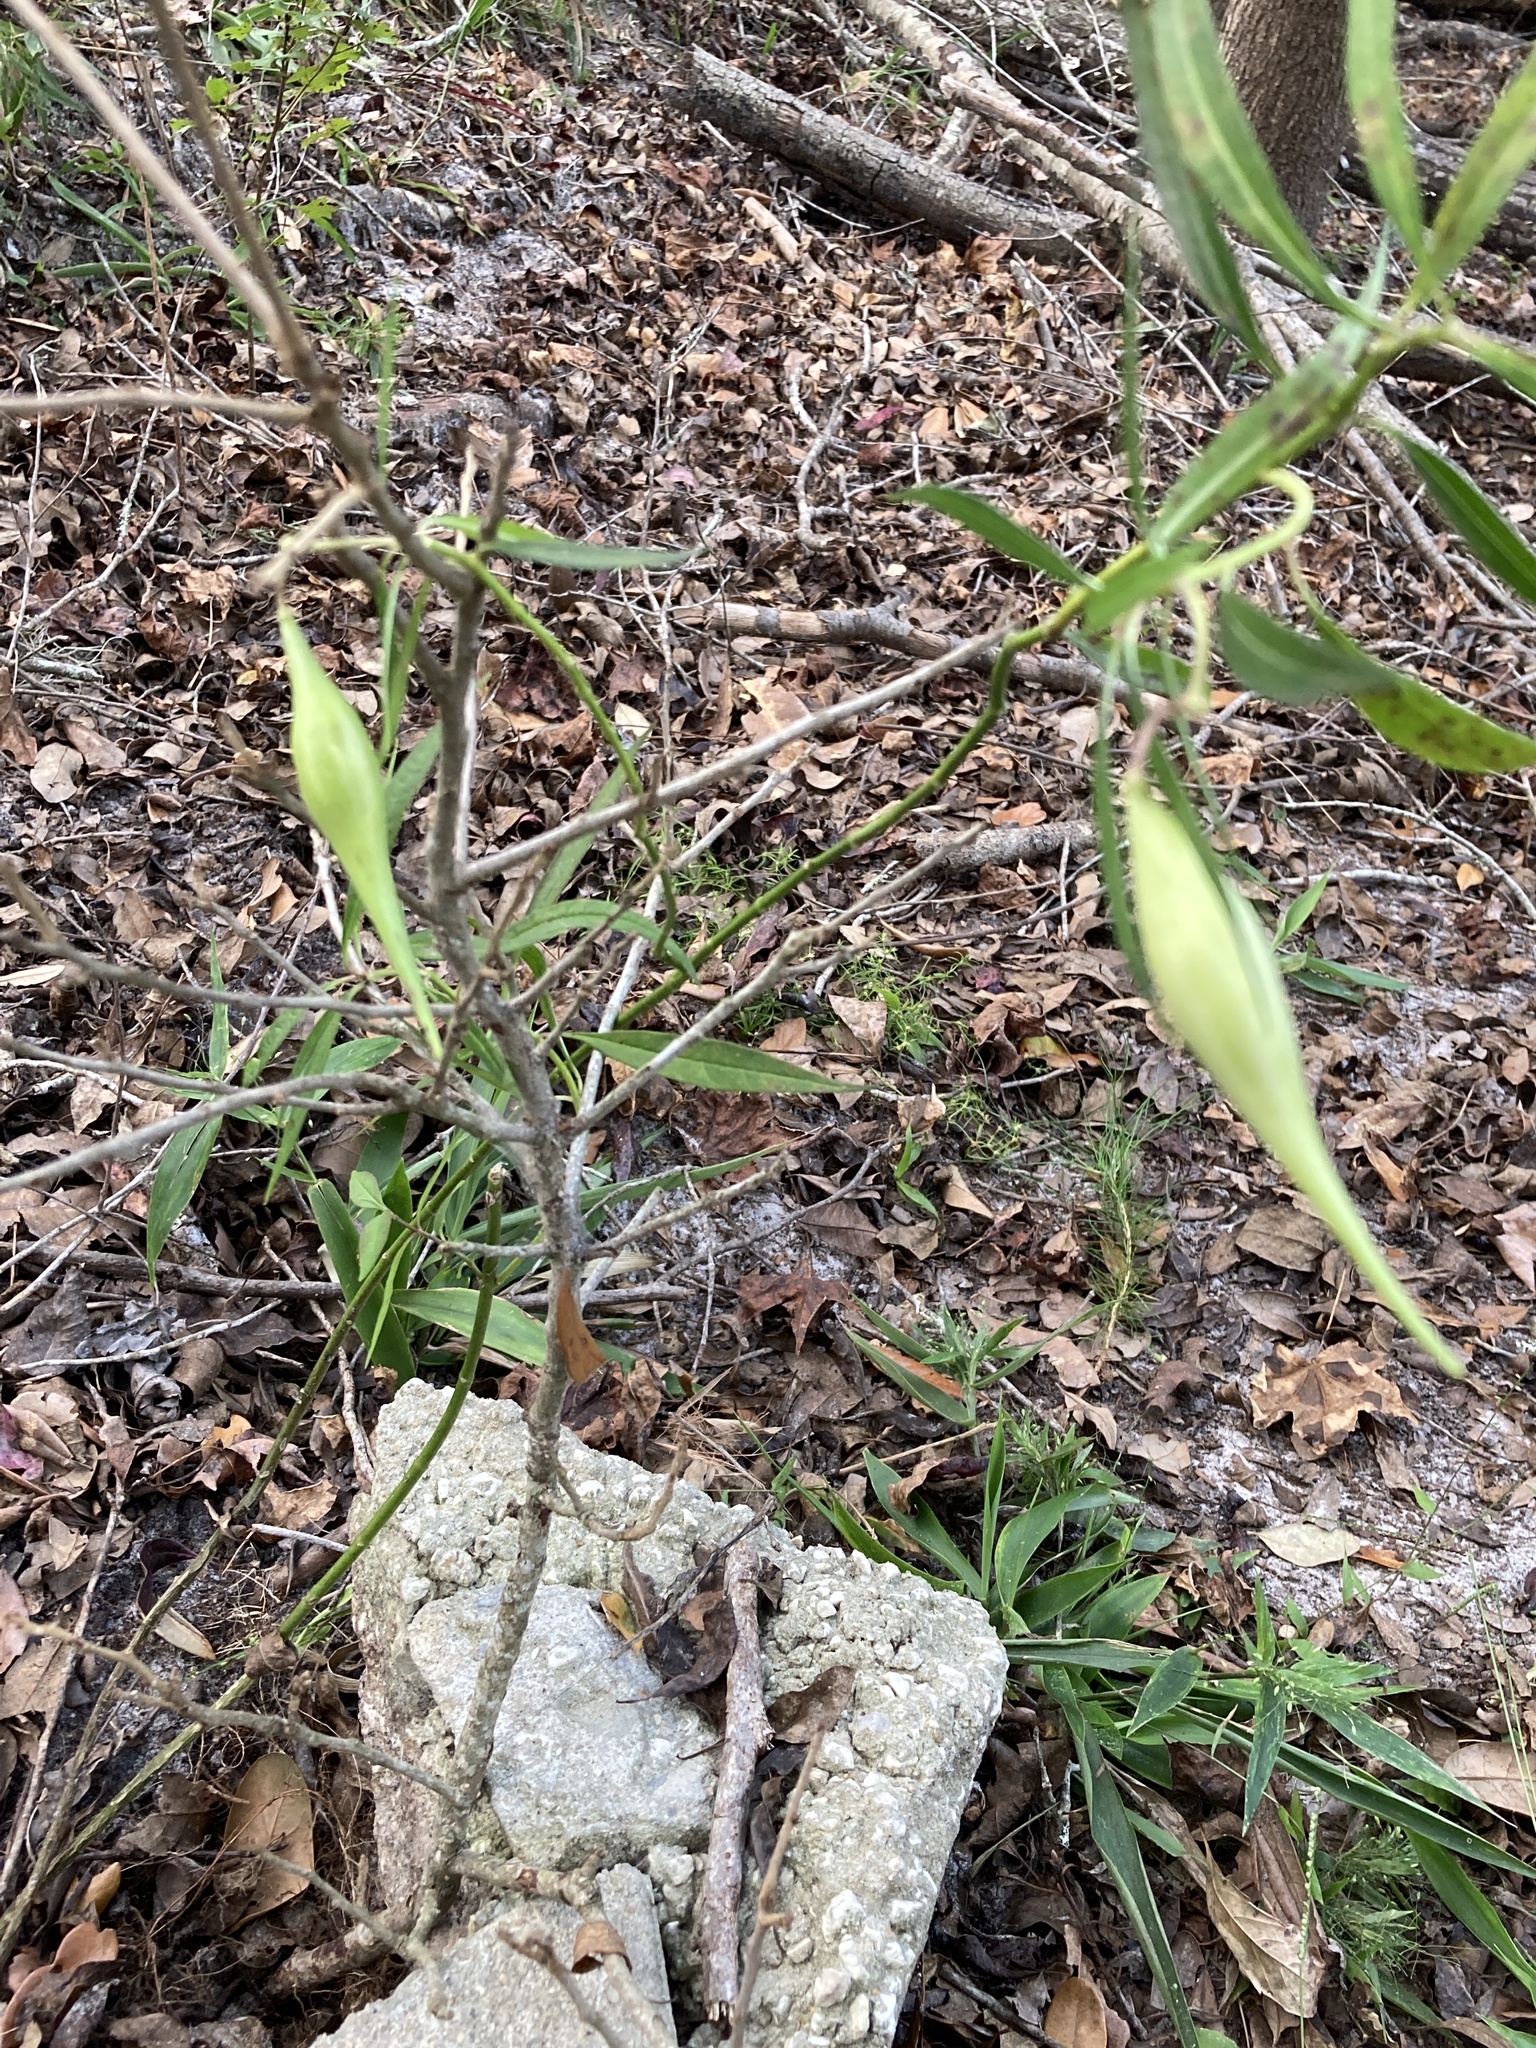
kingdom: Plantae
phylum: Tracheophyta
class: Magnoliopsida
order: Gentianales
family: Apocynaceae
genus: Asclepias
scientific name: Asclepias perennis
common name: Smooth-seed milkweed
